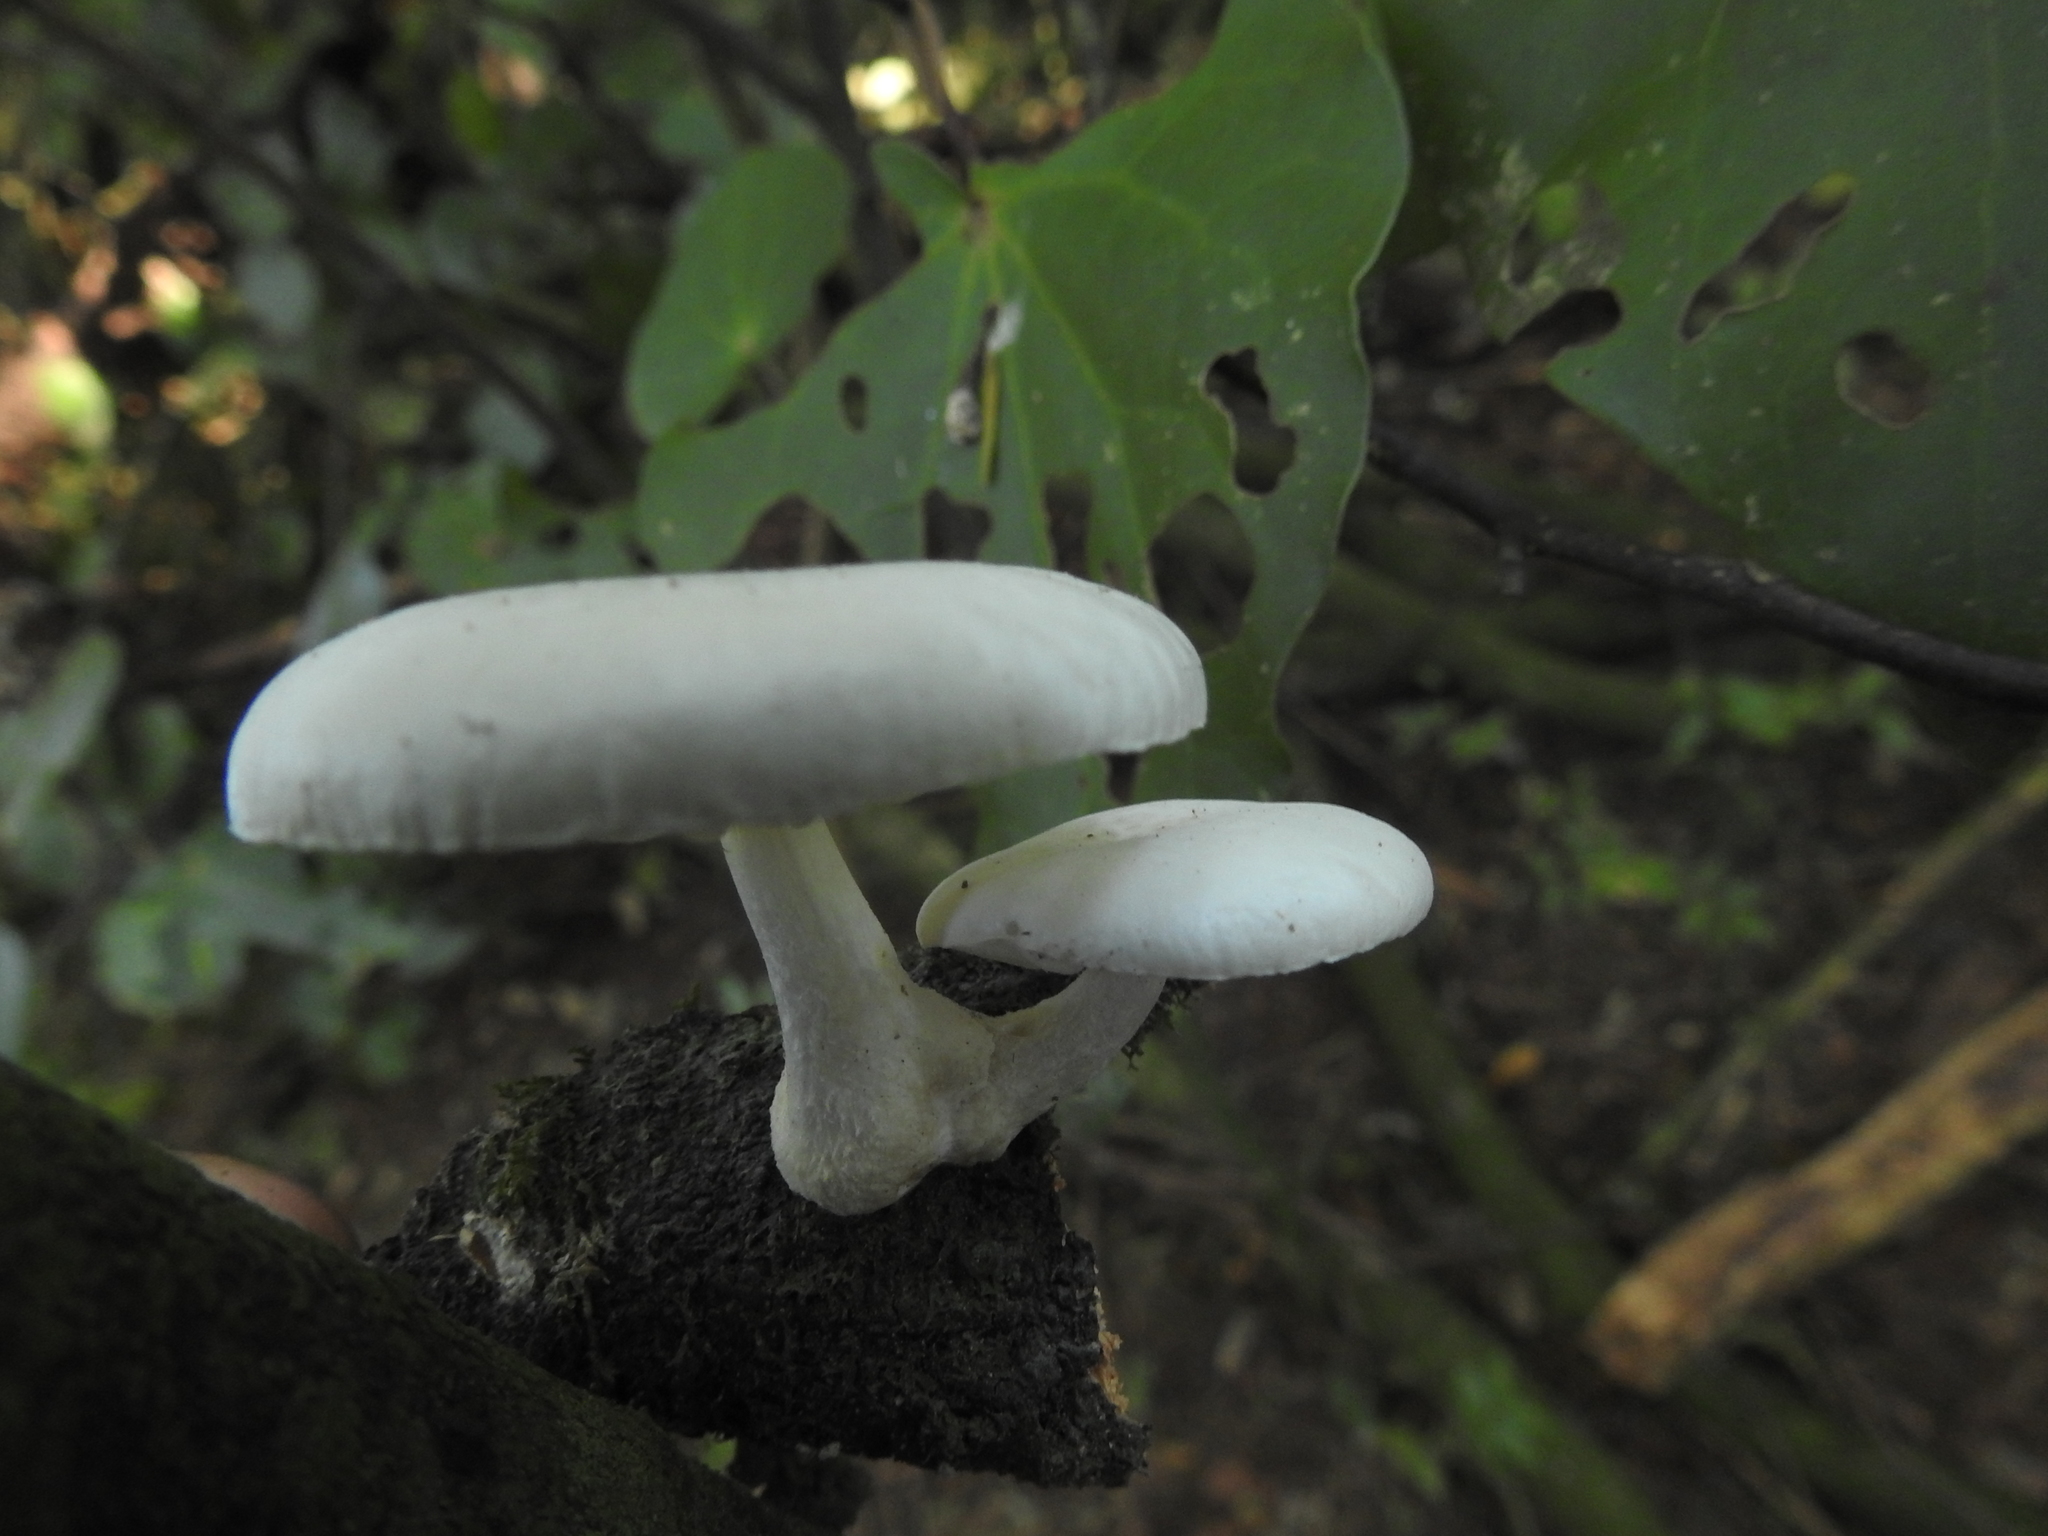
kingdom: Fungi
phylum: Basidiomycota
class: Agaricomycetes
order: Agaricales
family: Physalacriaceae
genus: Oudemansiella
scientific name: Oudemansiella australis
